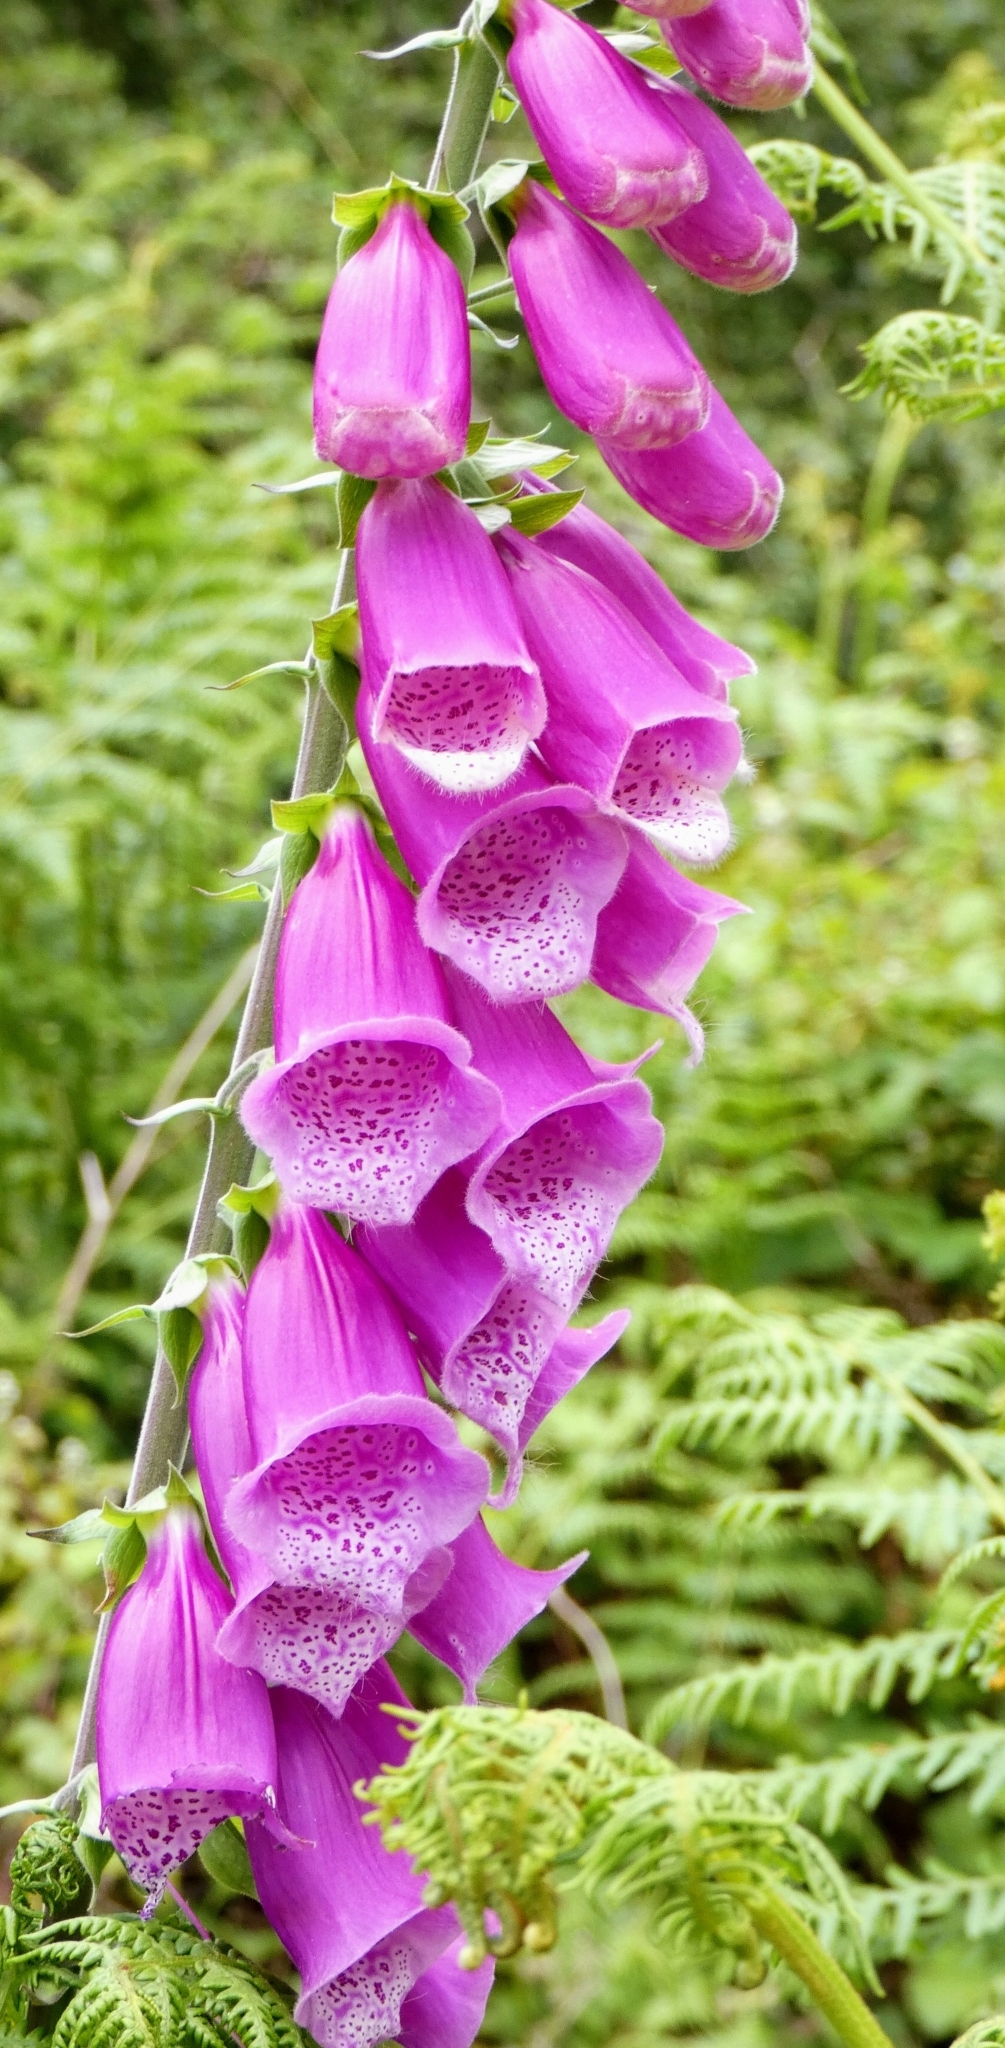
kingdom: Plantae
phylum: Tracheophyta
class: Magnoliopsida
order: Lamiales
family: Plantaginaceae
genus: Digitalis
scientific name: Digitalis purpurea
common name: Foxglove
